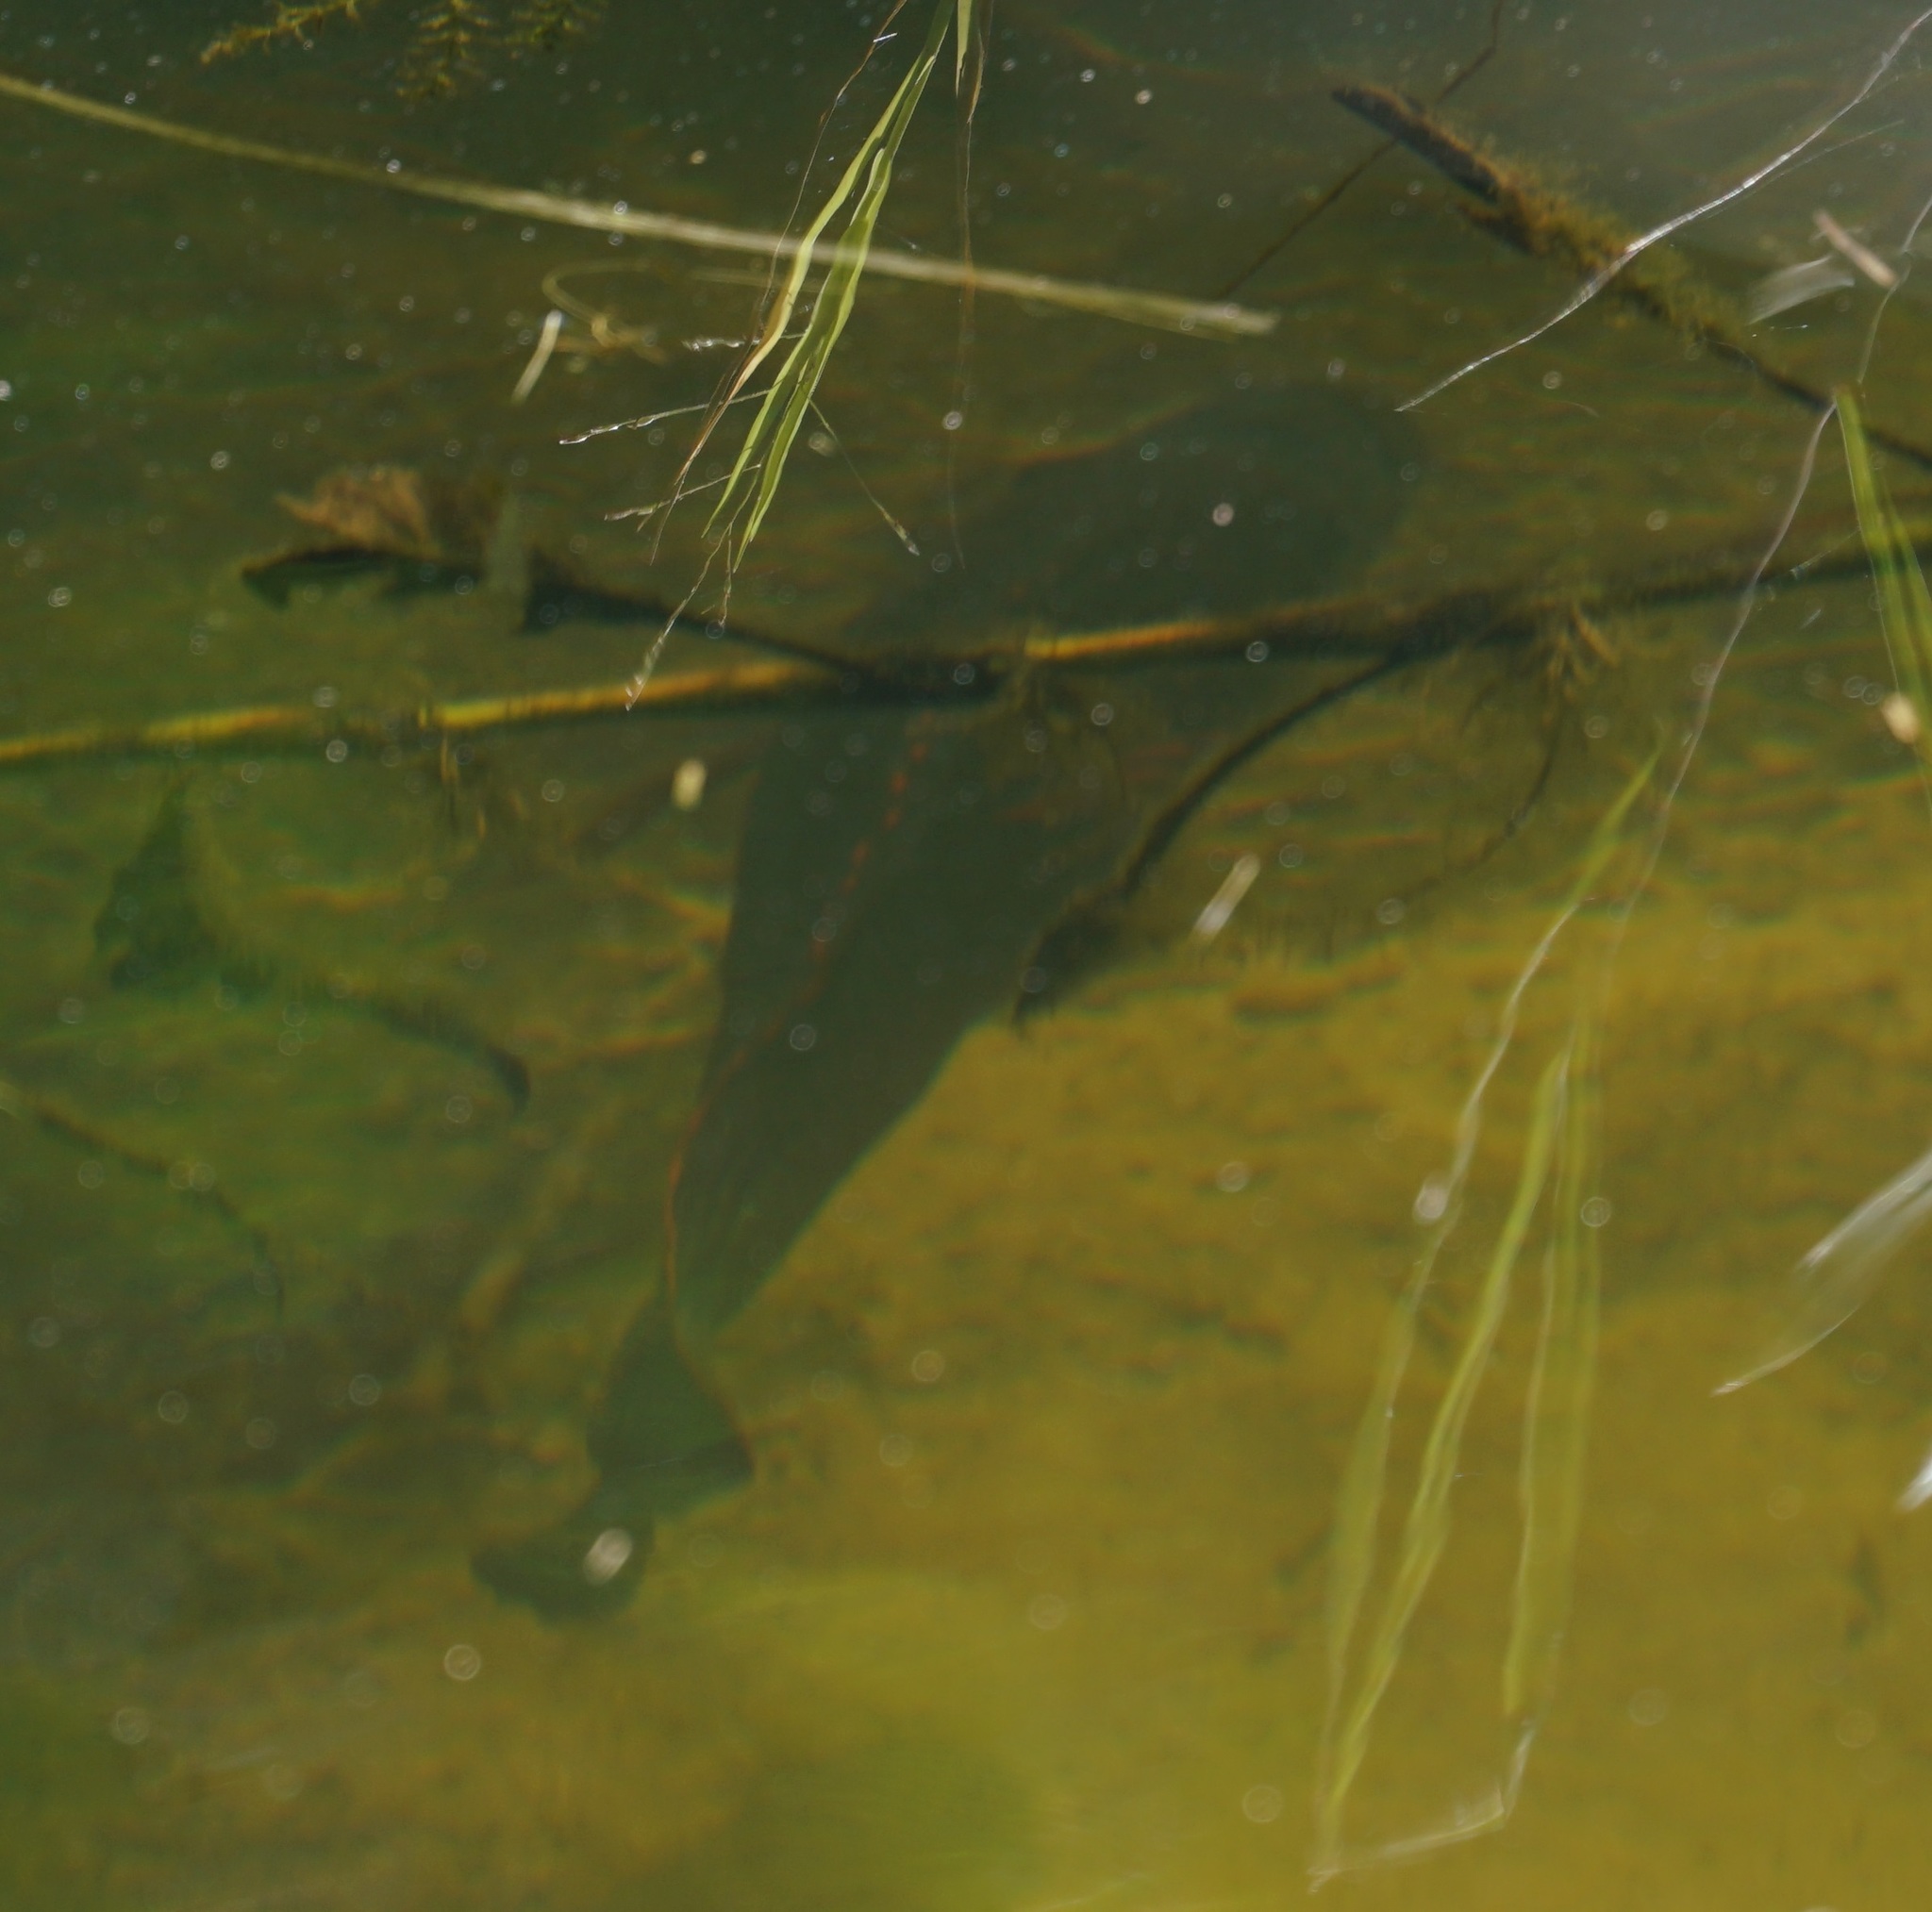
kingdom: Animalia
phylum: Chordata
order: Perciformes
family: Terapontidae
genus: Hephaestus
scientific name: Hephaestus fuliginosus
